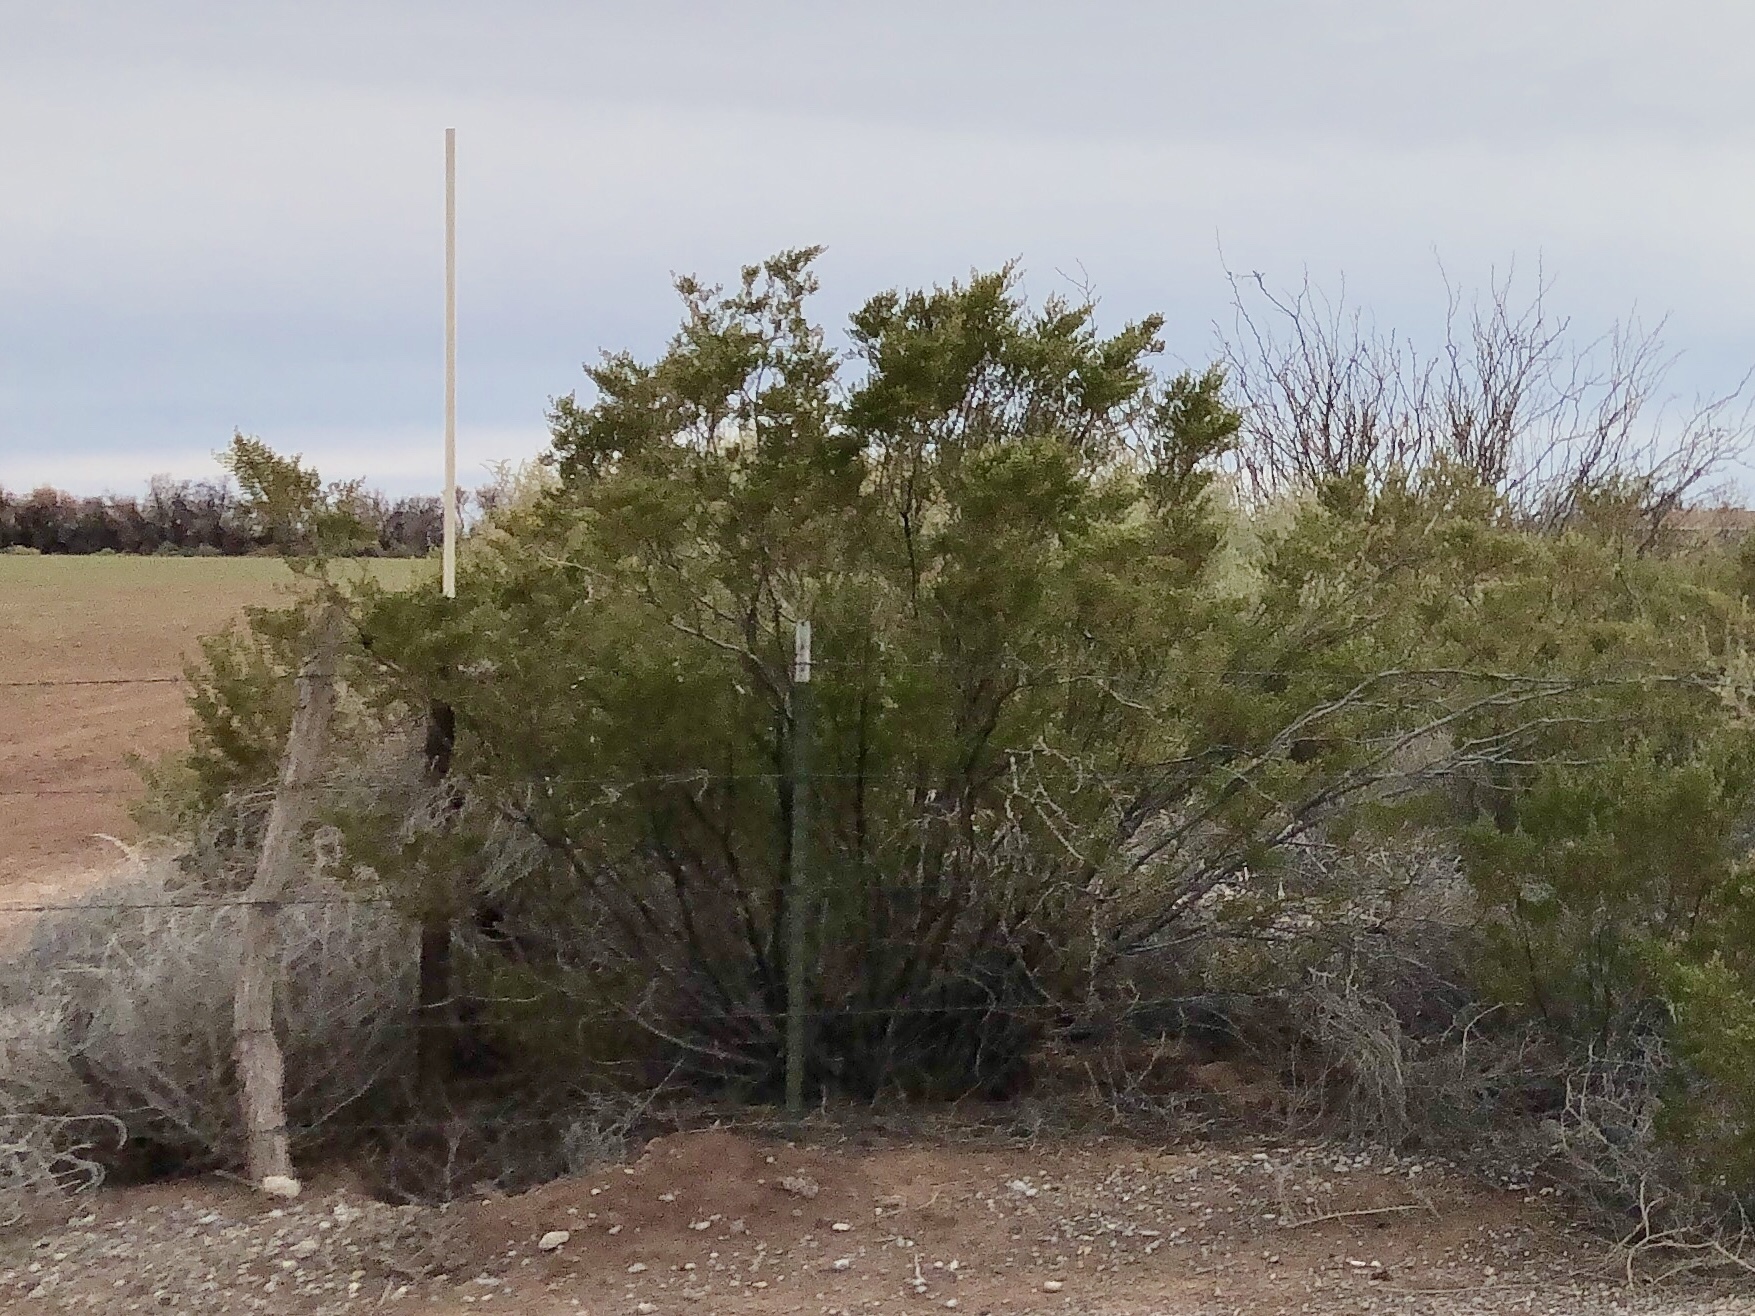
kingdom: Plantae
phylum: Tracheophyta
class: Magnoliopsida
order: Zygophyllales
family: Zygophyllaceae
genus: Larrea
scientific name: Larrea tridentata
